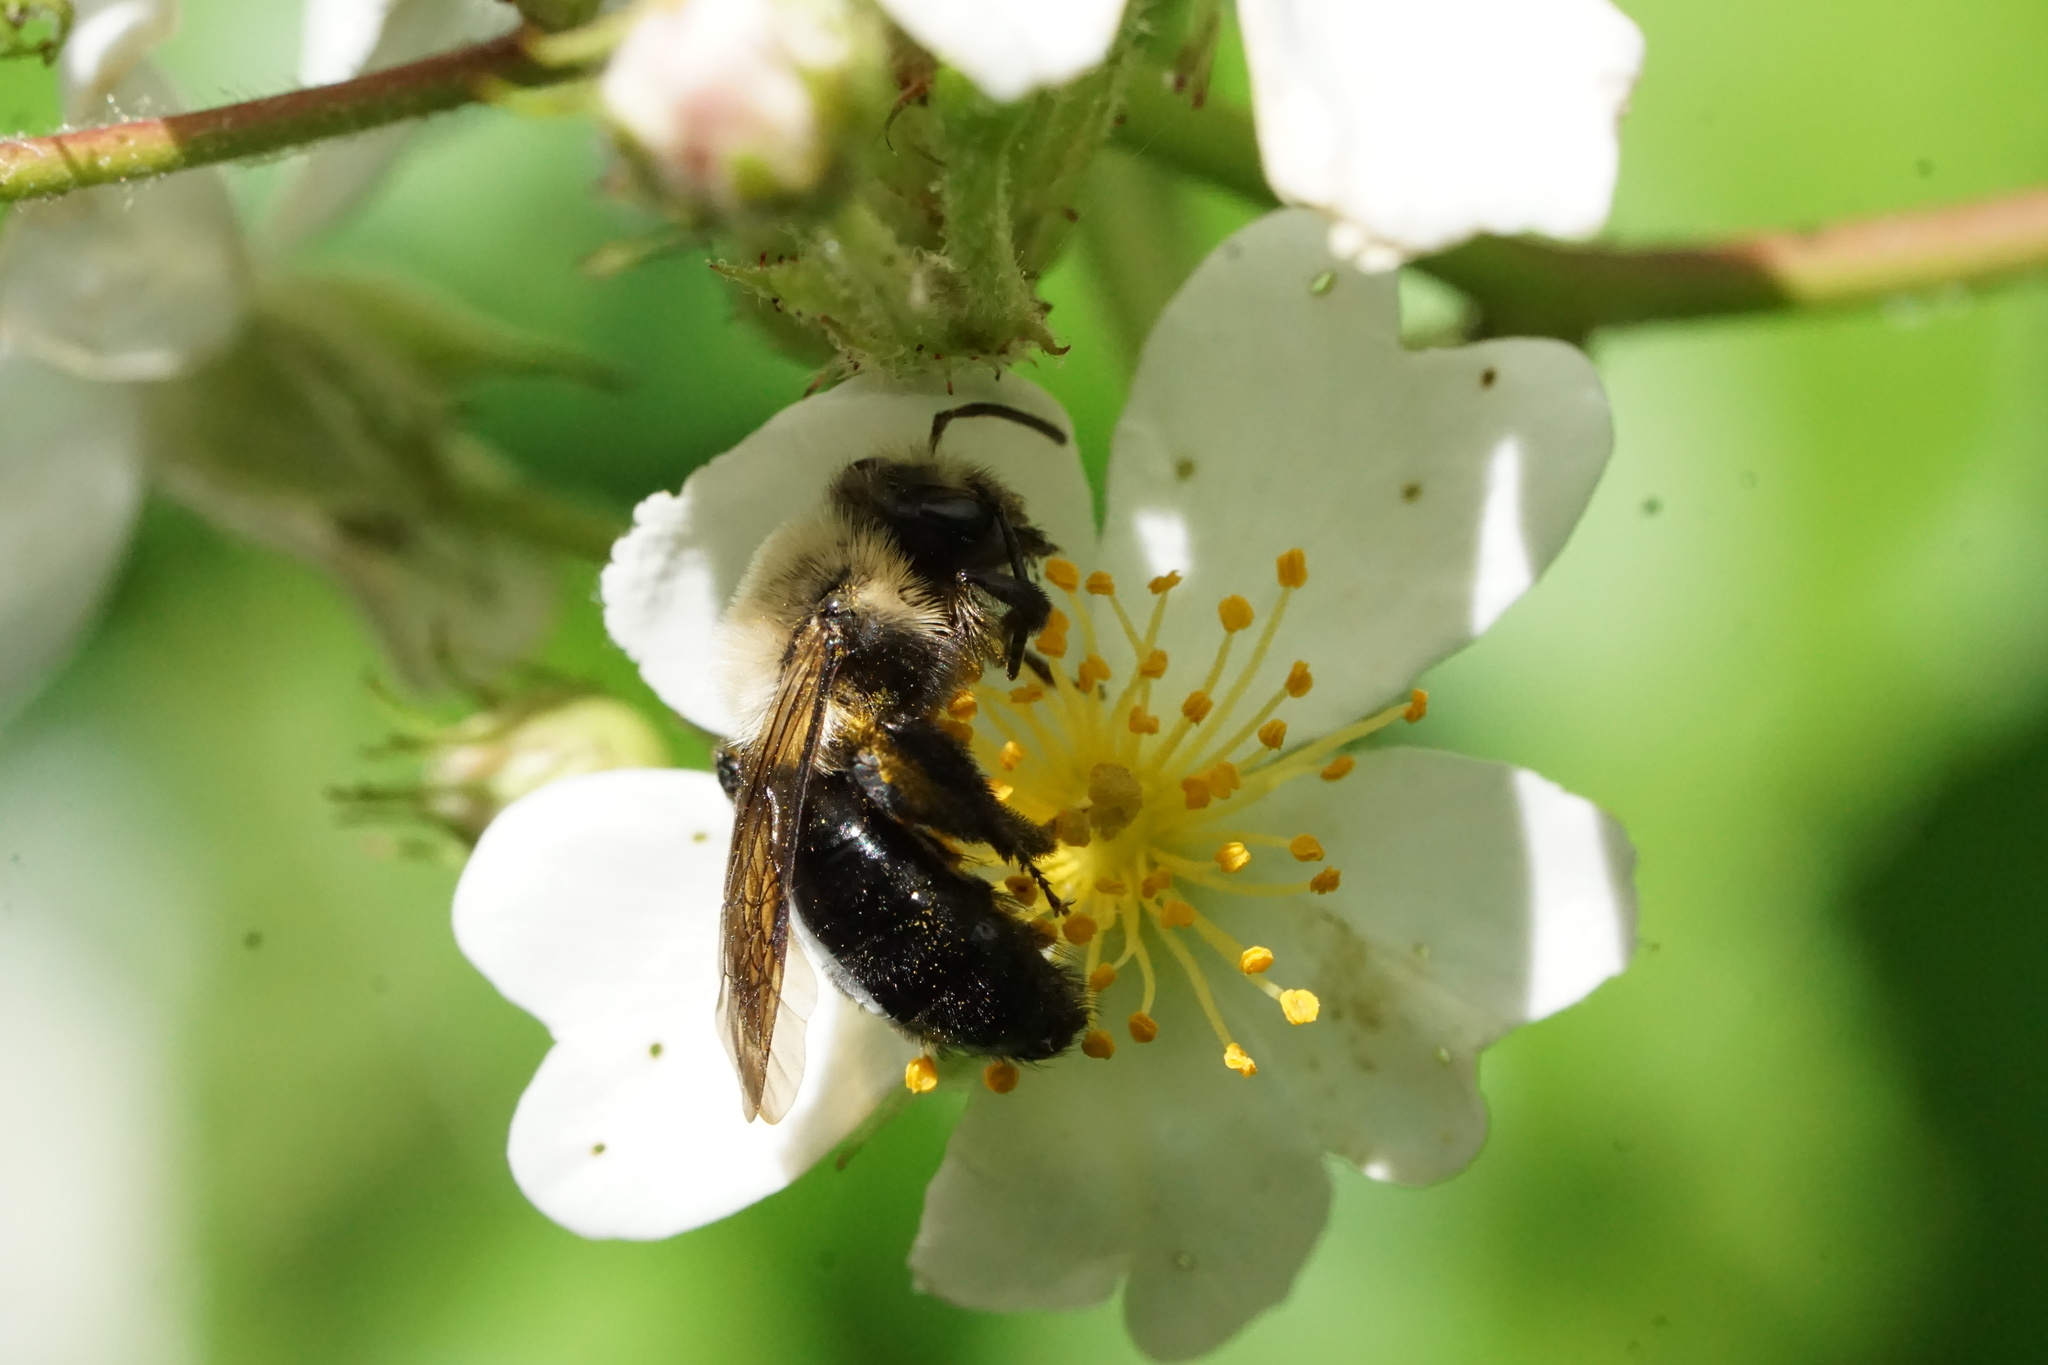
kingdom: Animalia
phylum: Arthropoda
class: Insecta
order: Hymenoptera
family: Andrenidae
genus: Andrena
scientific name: Andrena carlini
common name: Carlin's mining bee
